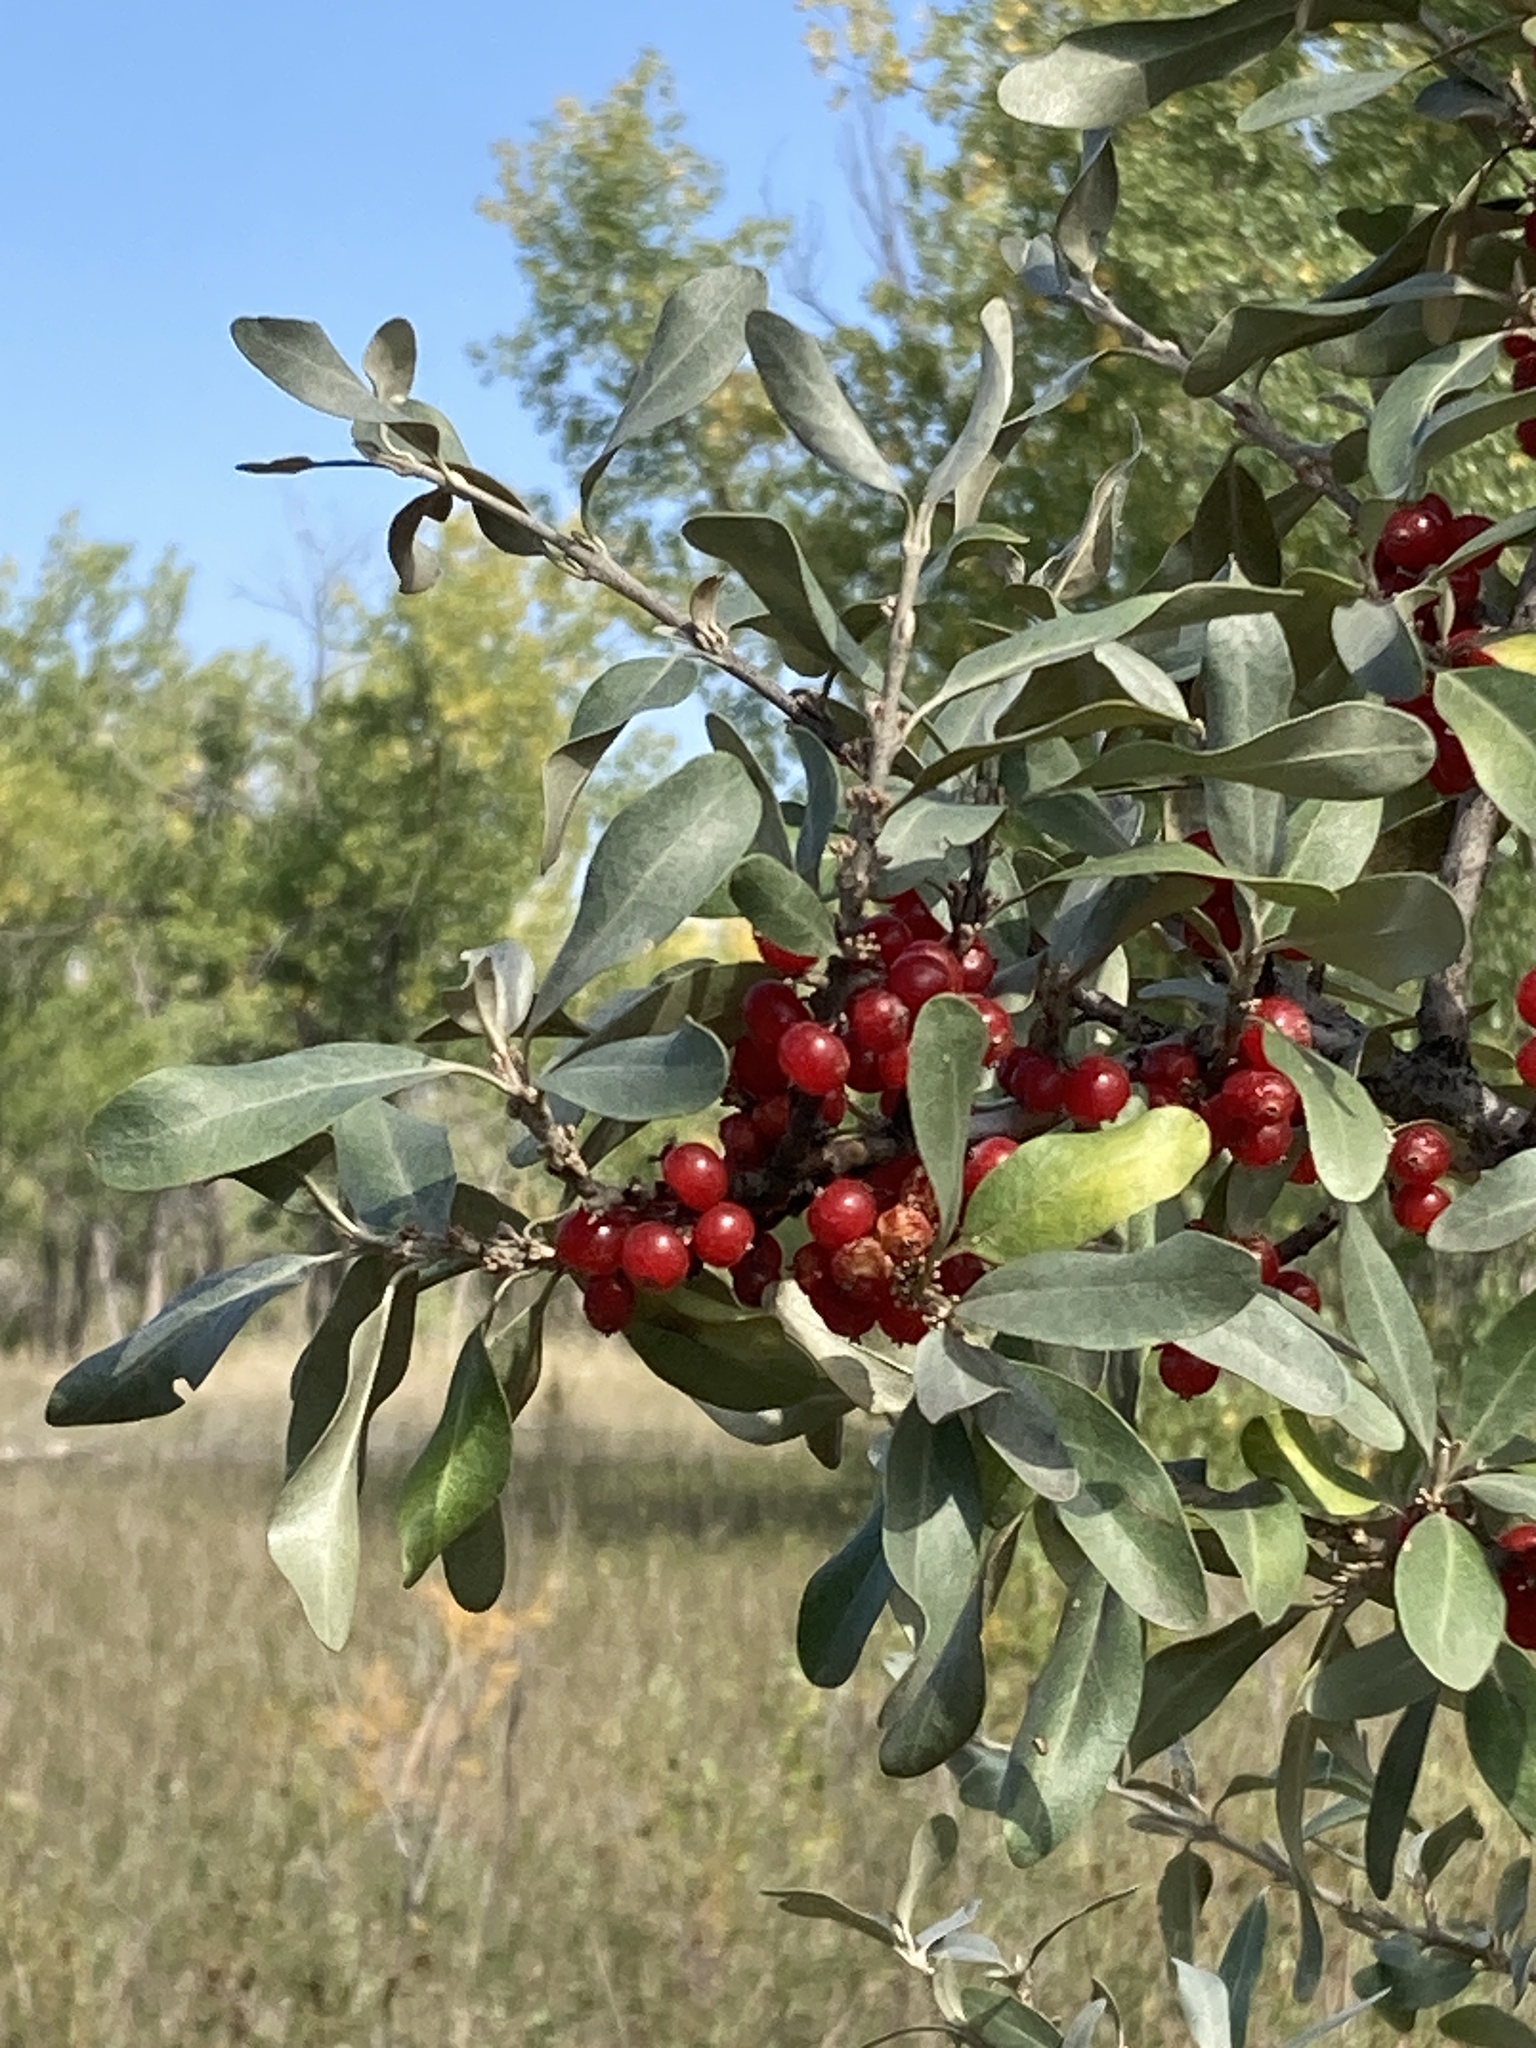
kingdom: Plantae
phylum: Tracheophyta
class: Magnoliopsida
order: Rosales
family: Elaeagnaceae
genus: Shepherdia
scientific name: Shepherdia argentea
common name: Silver buffaloberry
